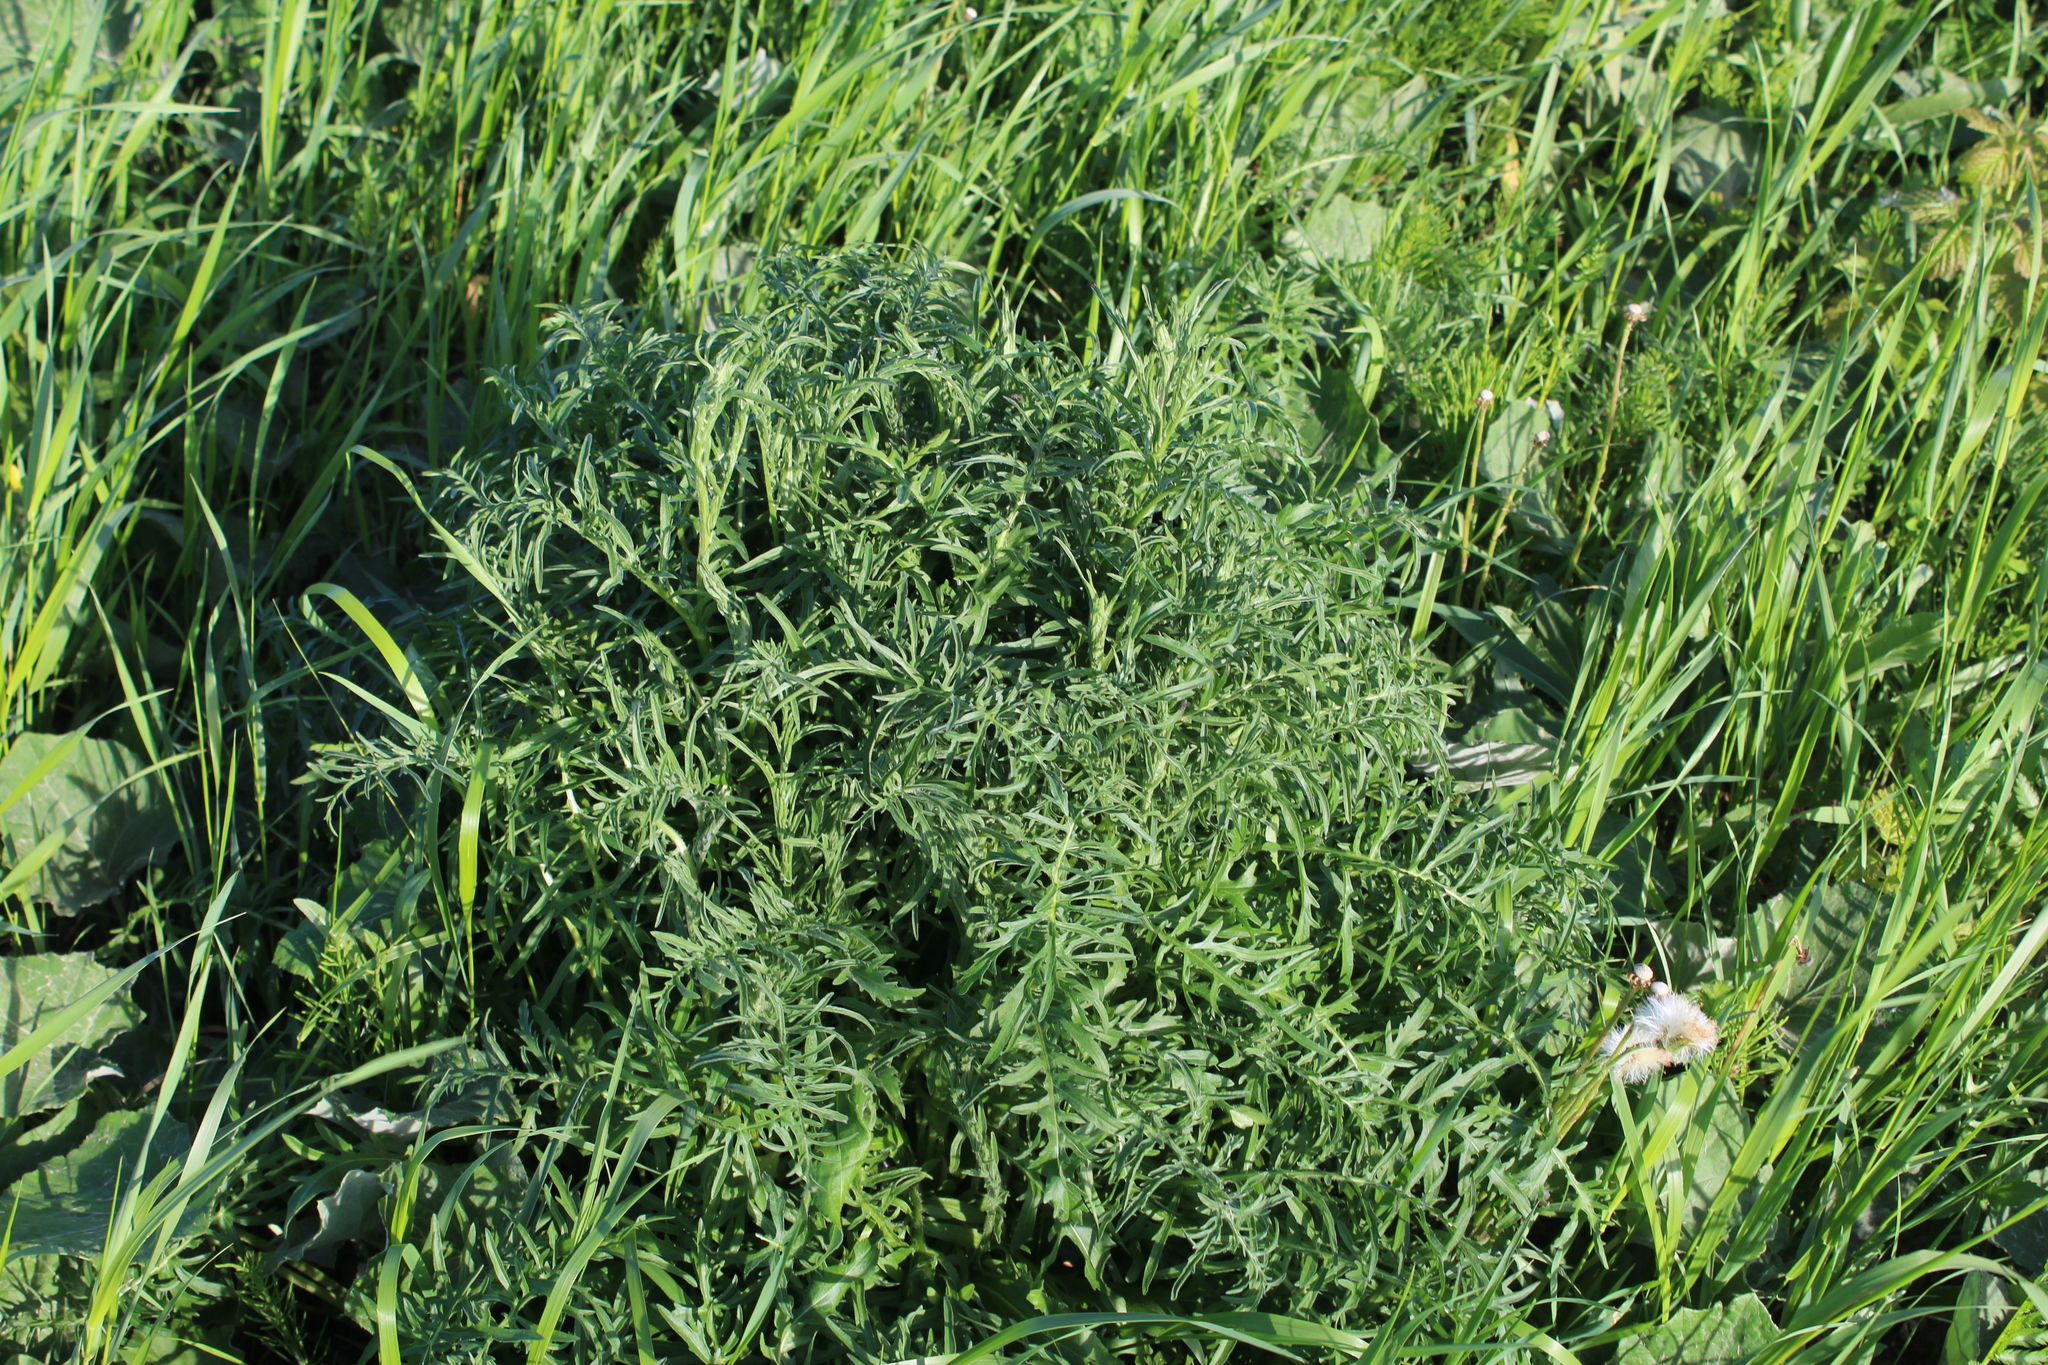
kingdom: Plantae
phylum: Tracheophyta
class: Magnoliopsida
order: Asterales
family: Asteraceae
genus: Centaurea
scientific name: Centaurea scabiosa
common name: Greater knapweed
